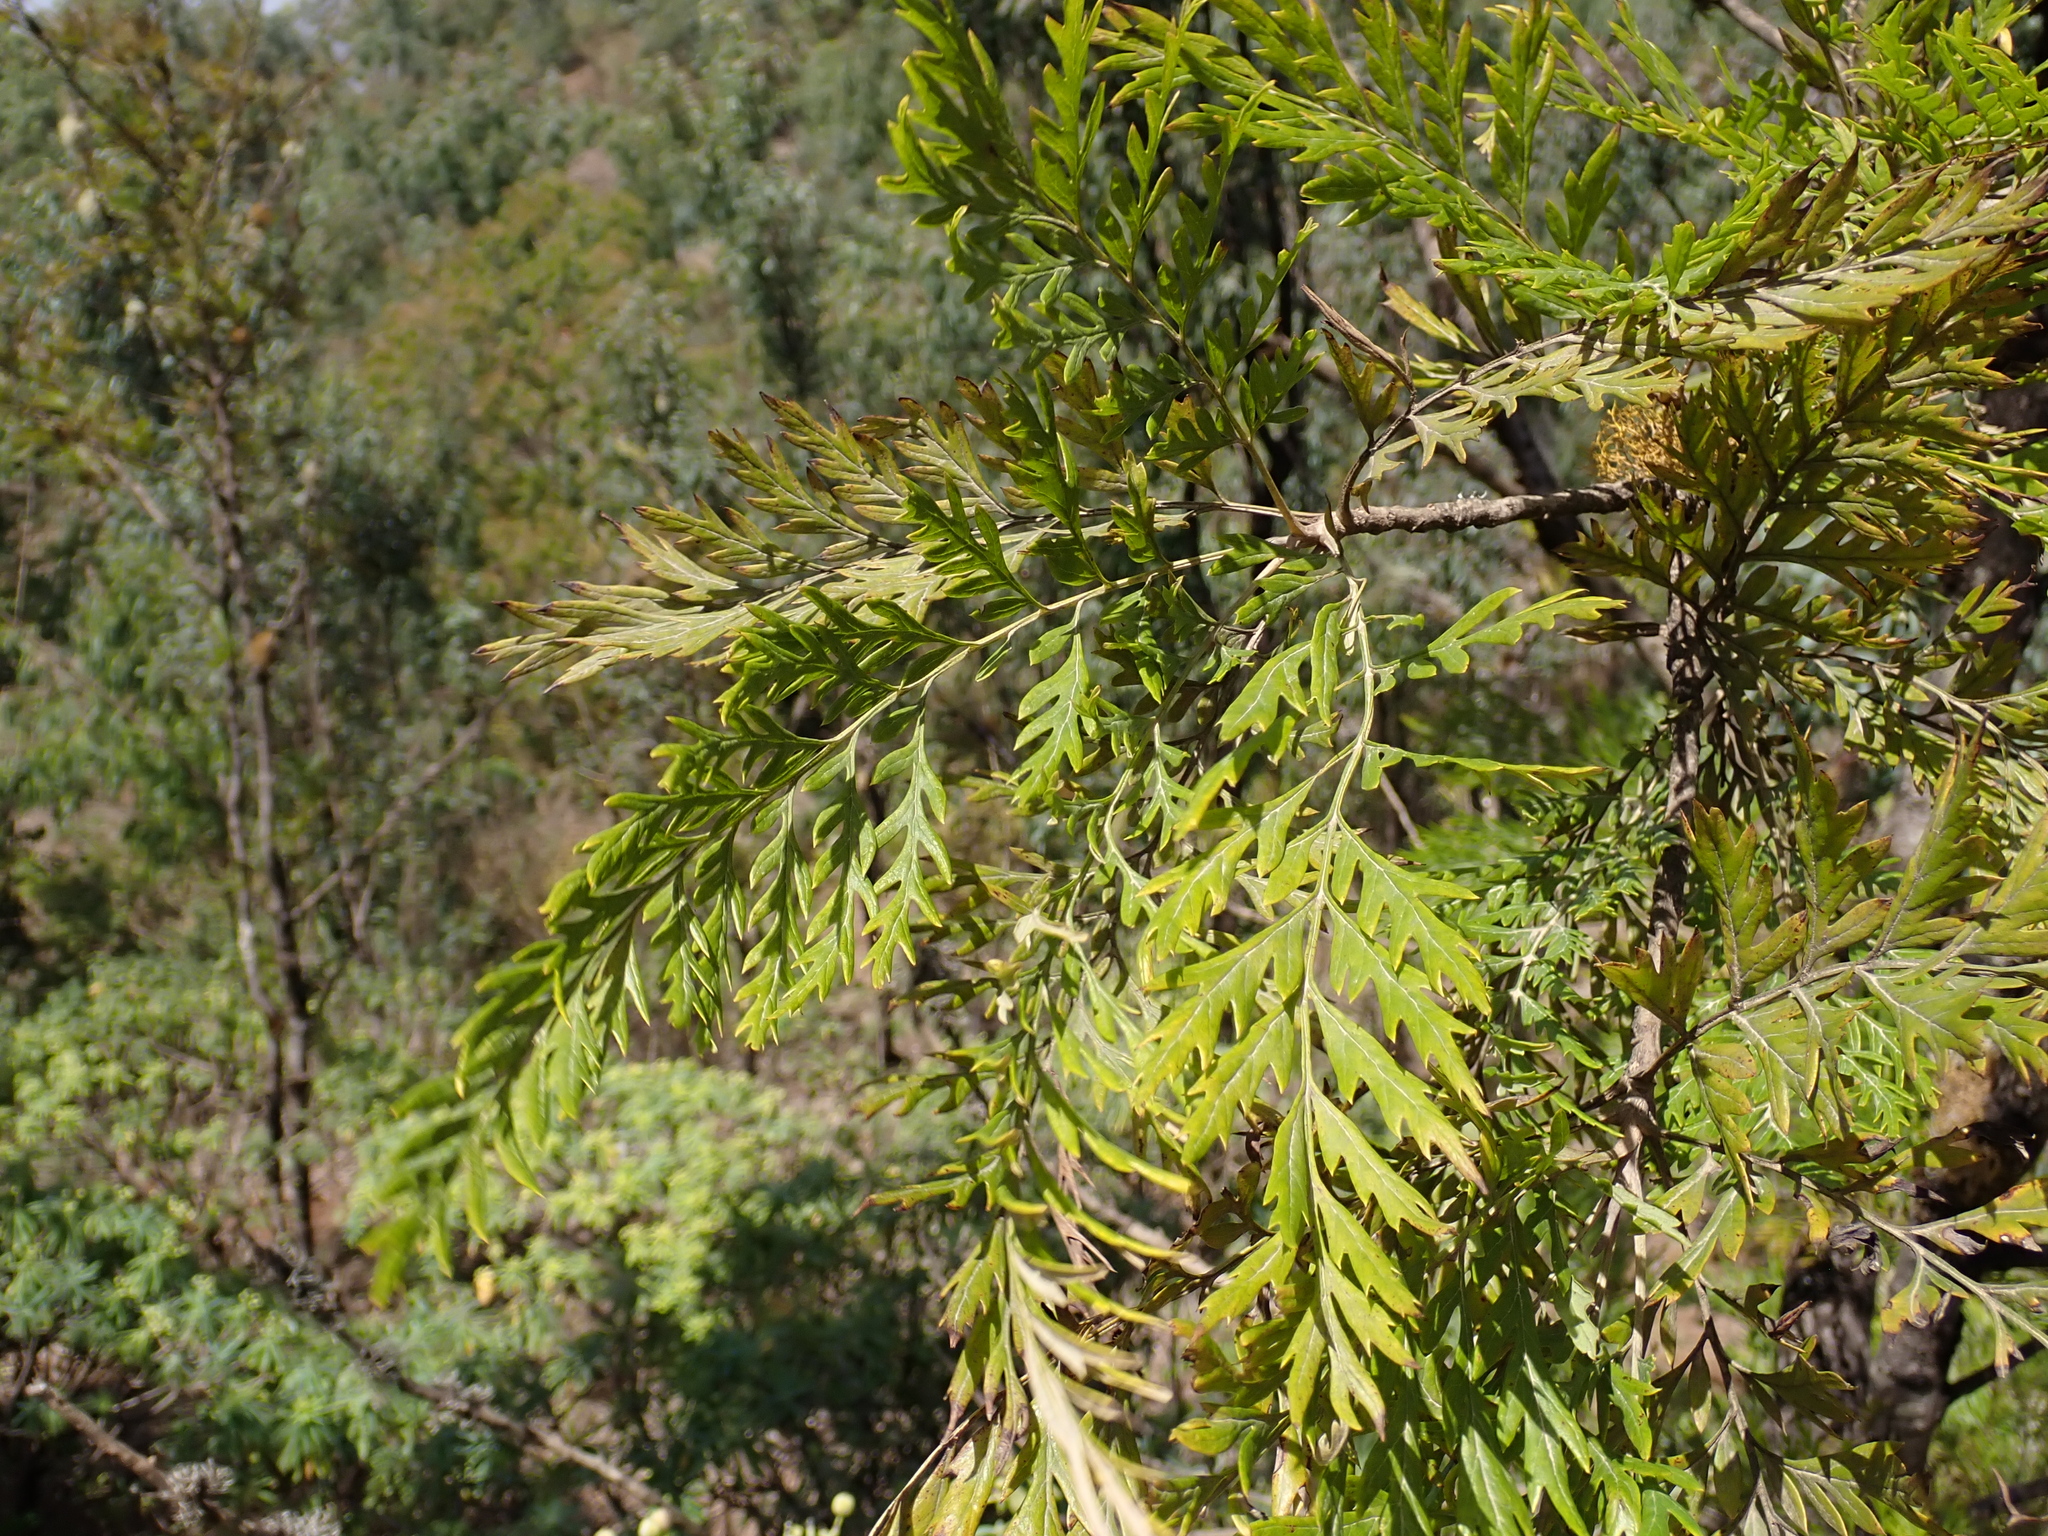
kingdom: Plantae
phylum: Tracheophyta
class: Magnoliopsida
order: Proteales
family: Proteaceae
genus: Grevillea
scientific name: Grevillea robusta
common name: Silkoak
